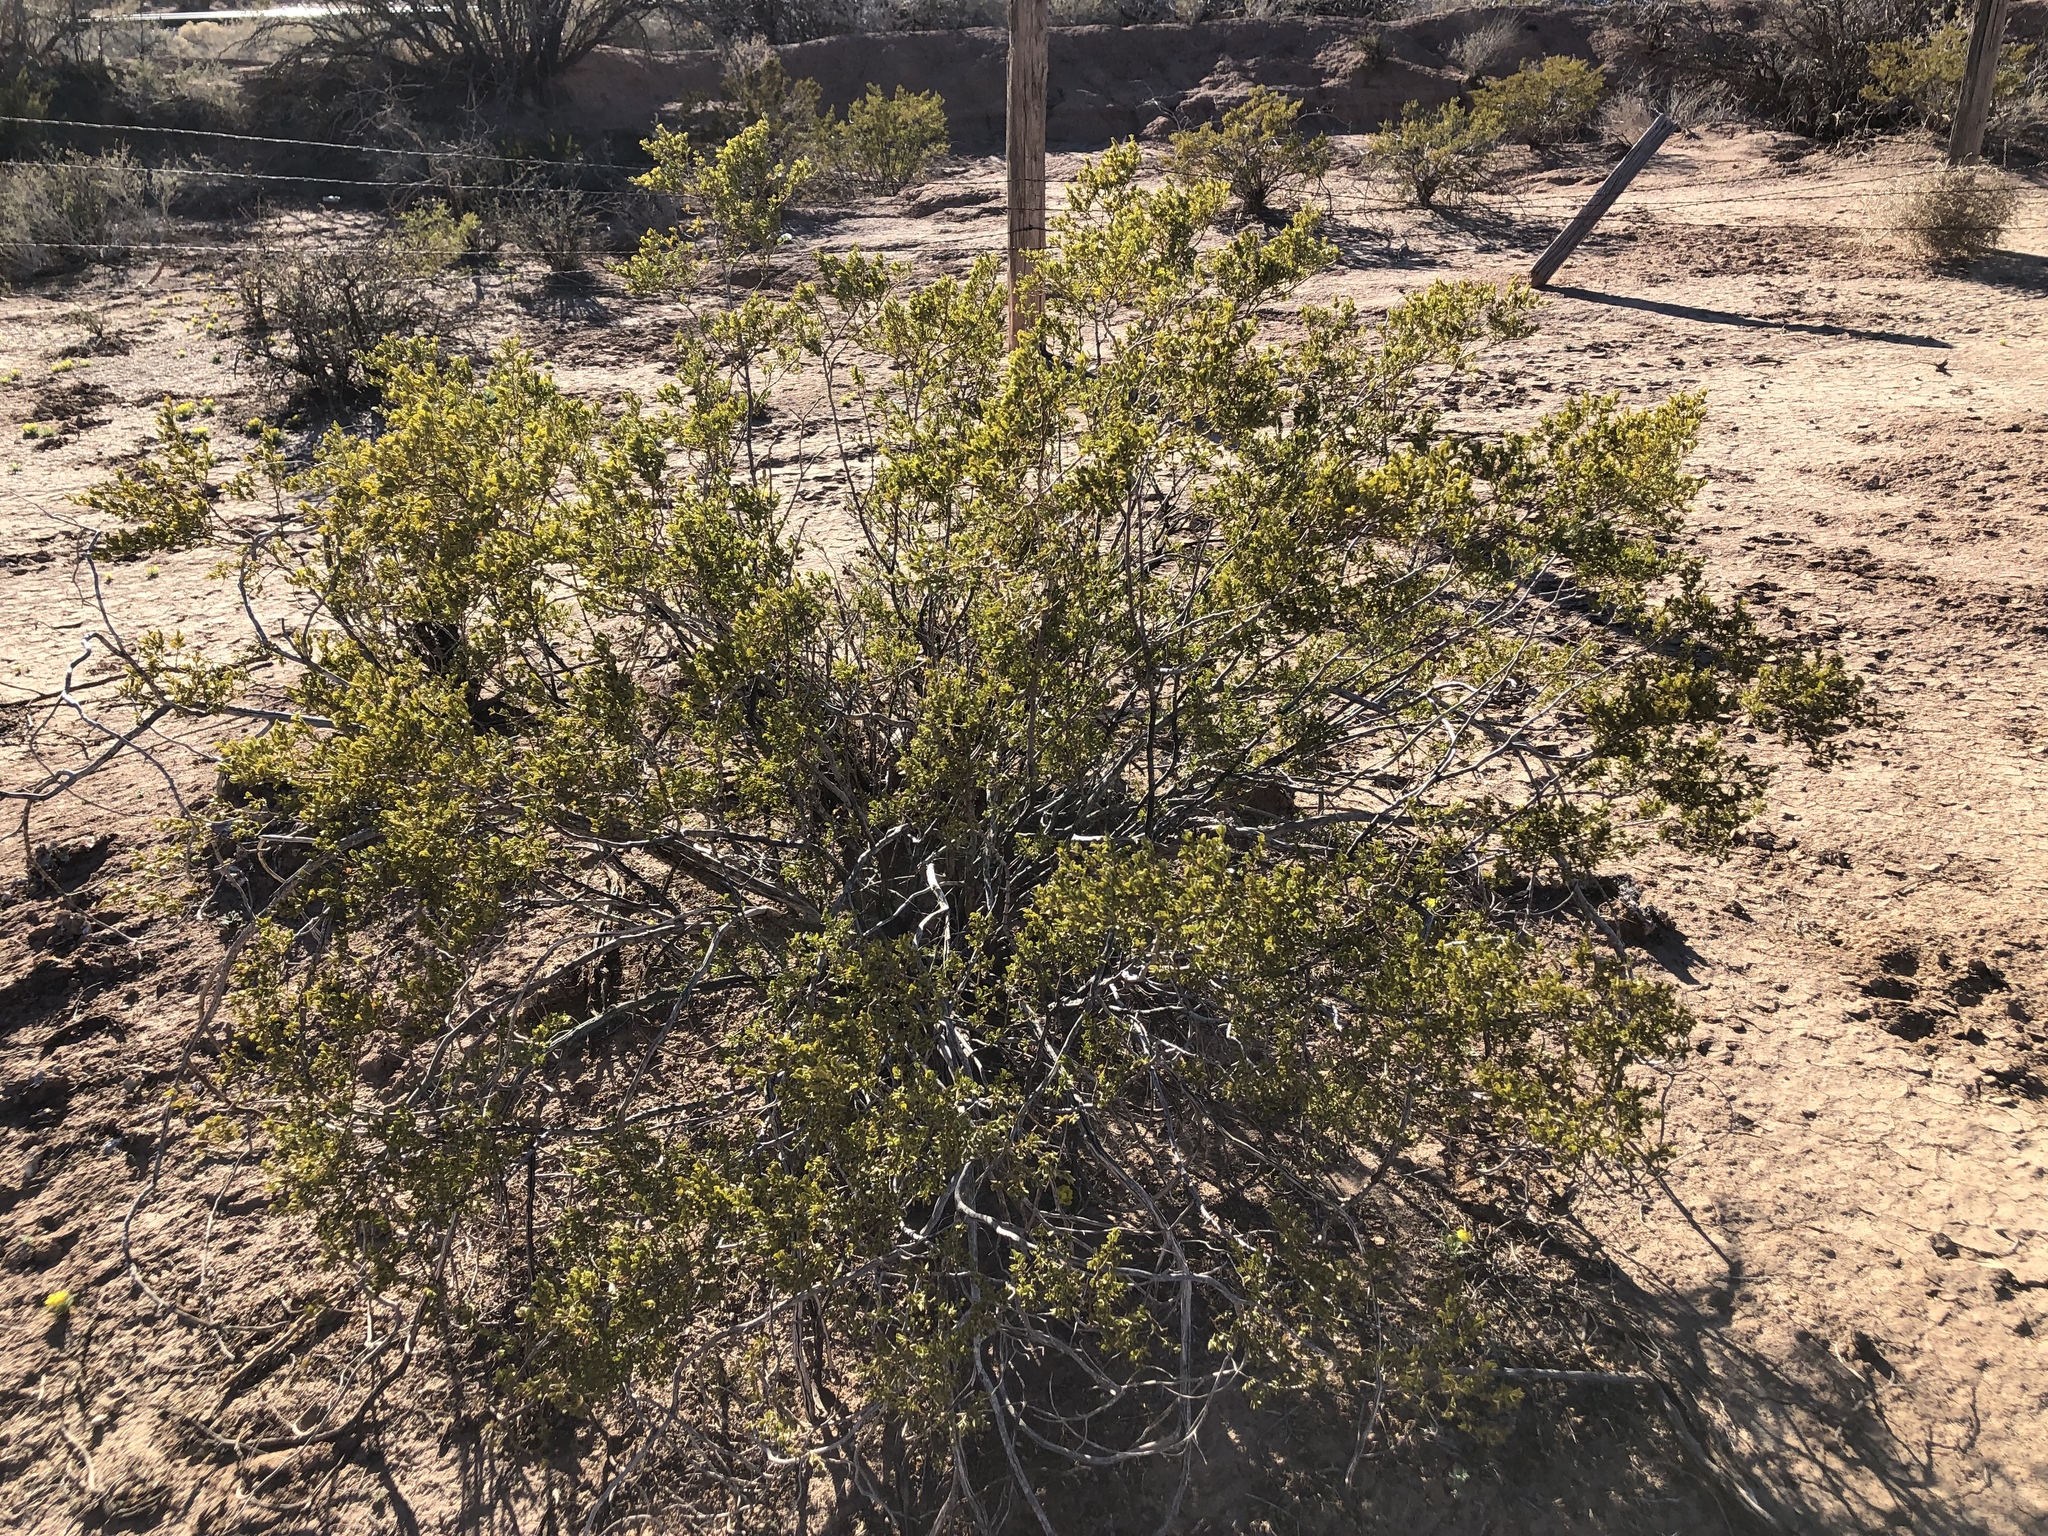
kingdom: Plantae
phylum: Tracheophyta
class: Magnoliopsida
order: Zygophyllales
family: Zygophyllaceae
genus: Larrea
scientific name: Larrea tridentata
